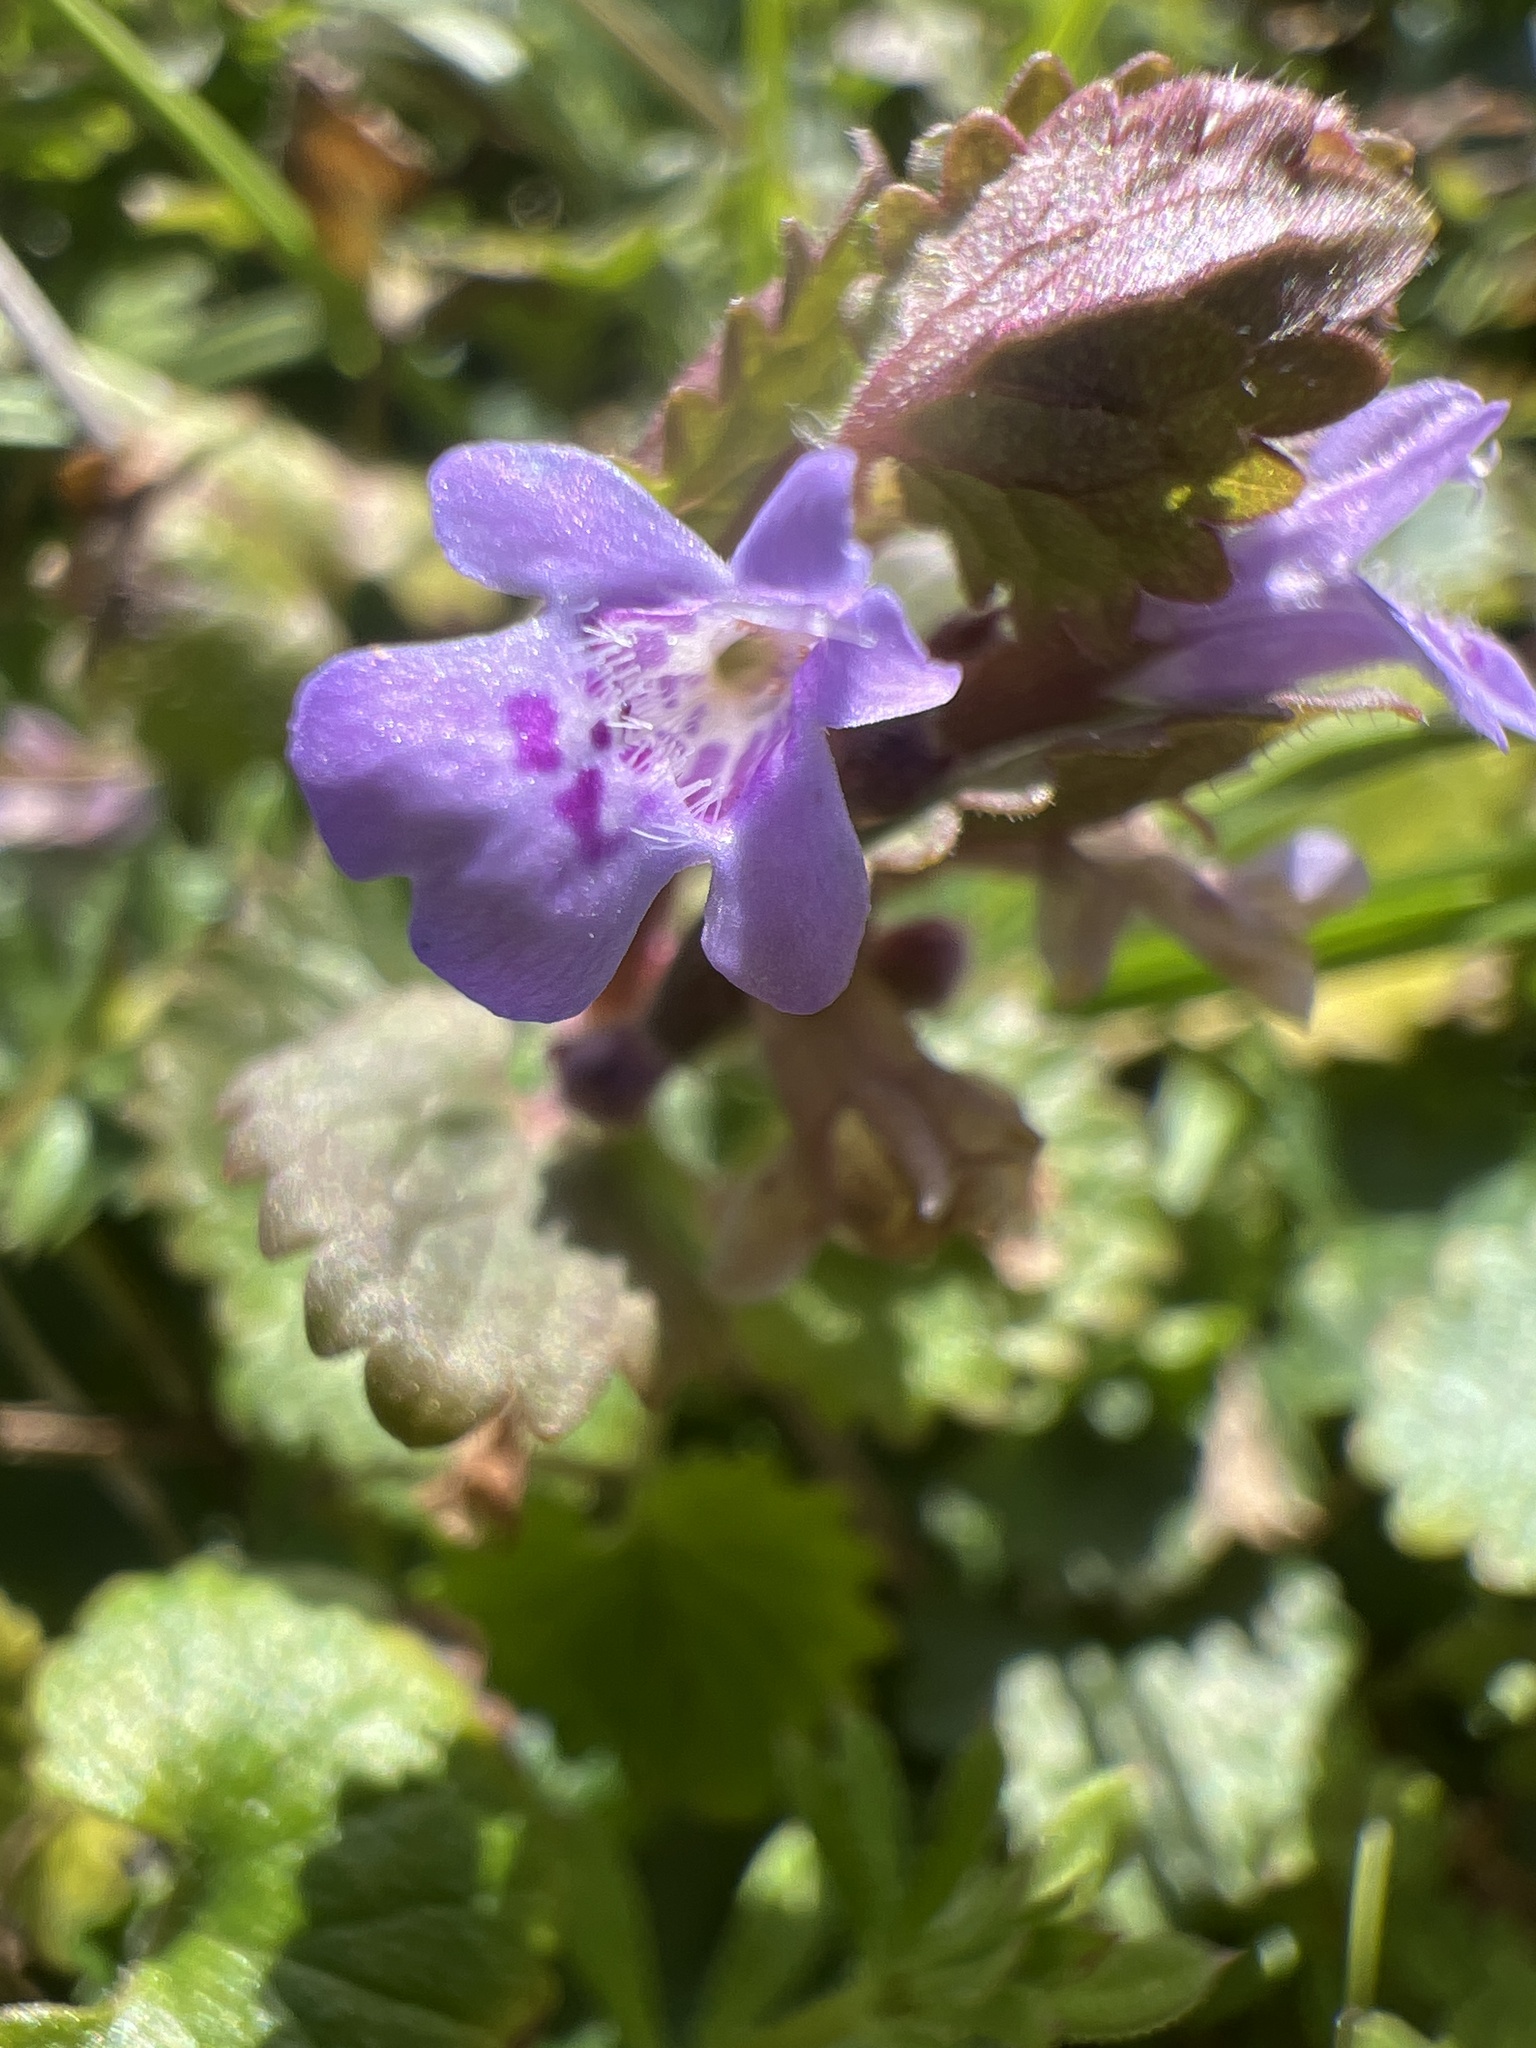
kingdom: Plantae
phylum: Tracheophyta
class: Magnoliopsida
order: Lamiales
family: Lamiaceae
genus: Glechoma
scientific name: Glechoma hederacea
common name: Ground ivy
